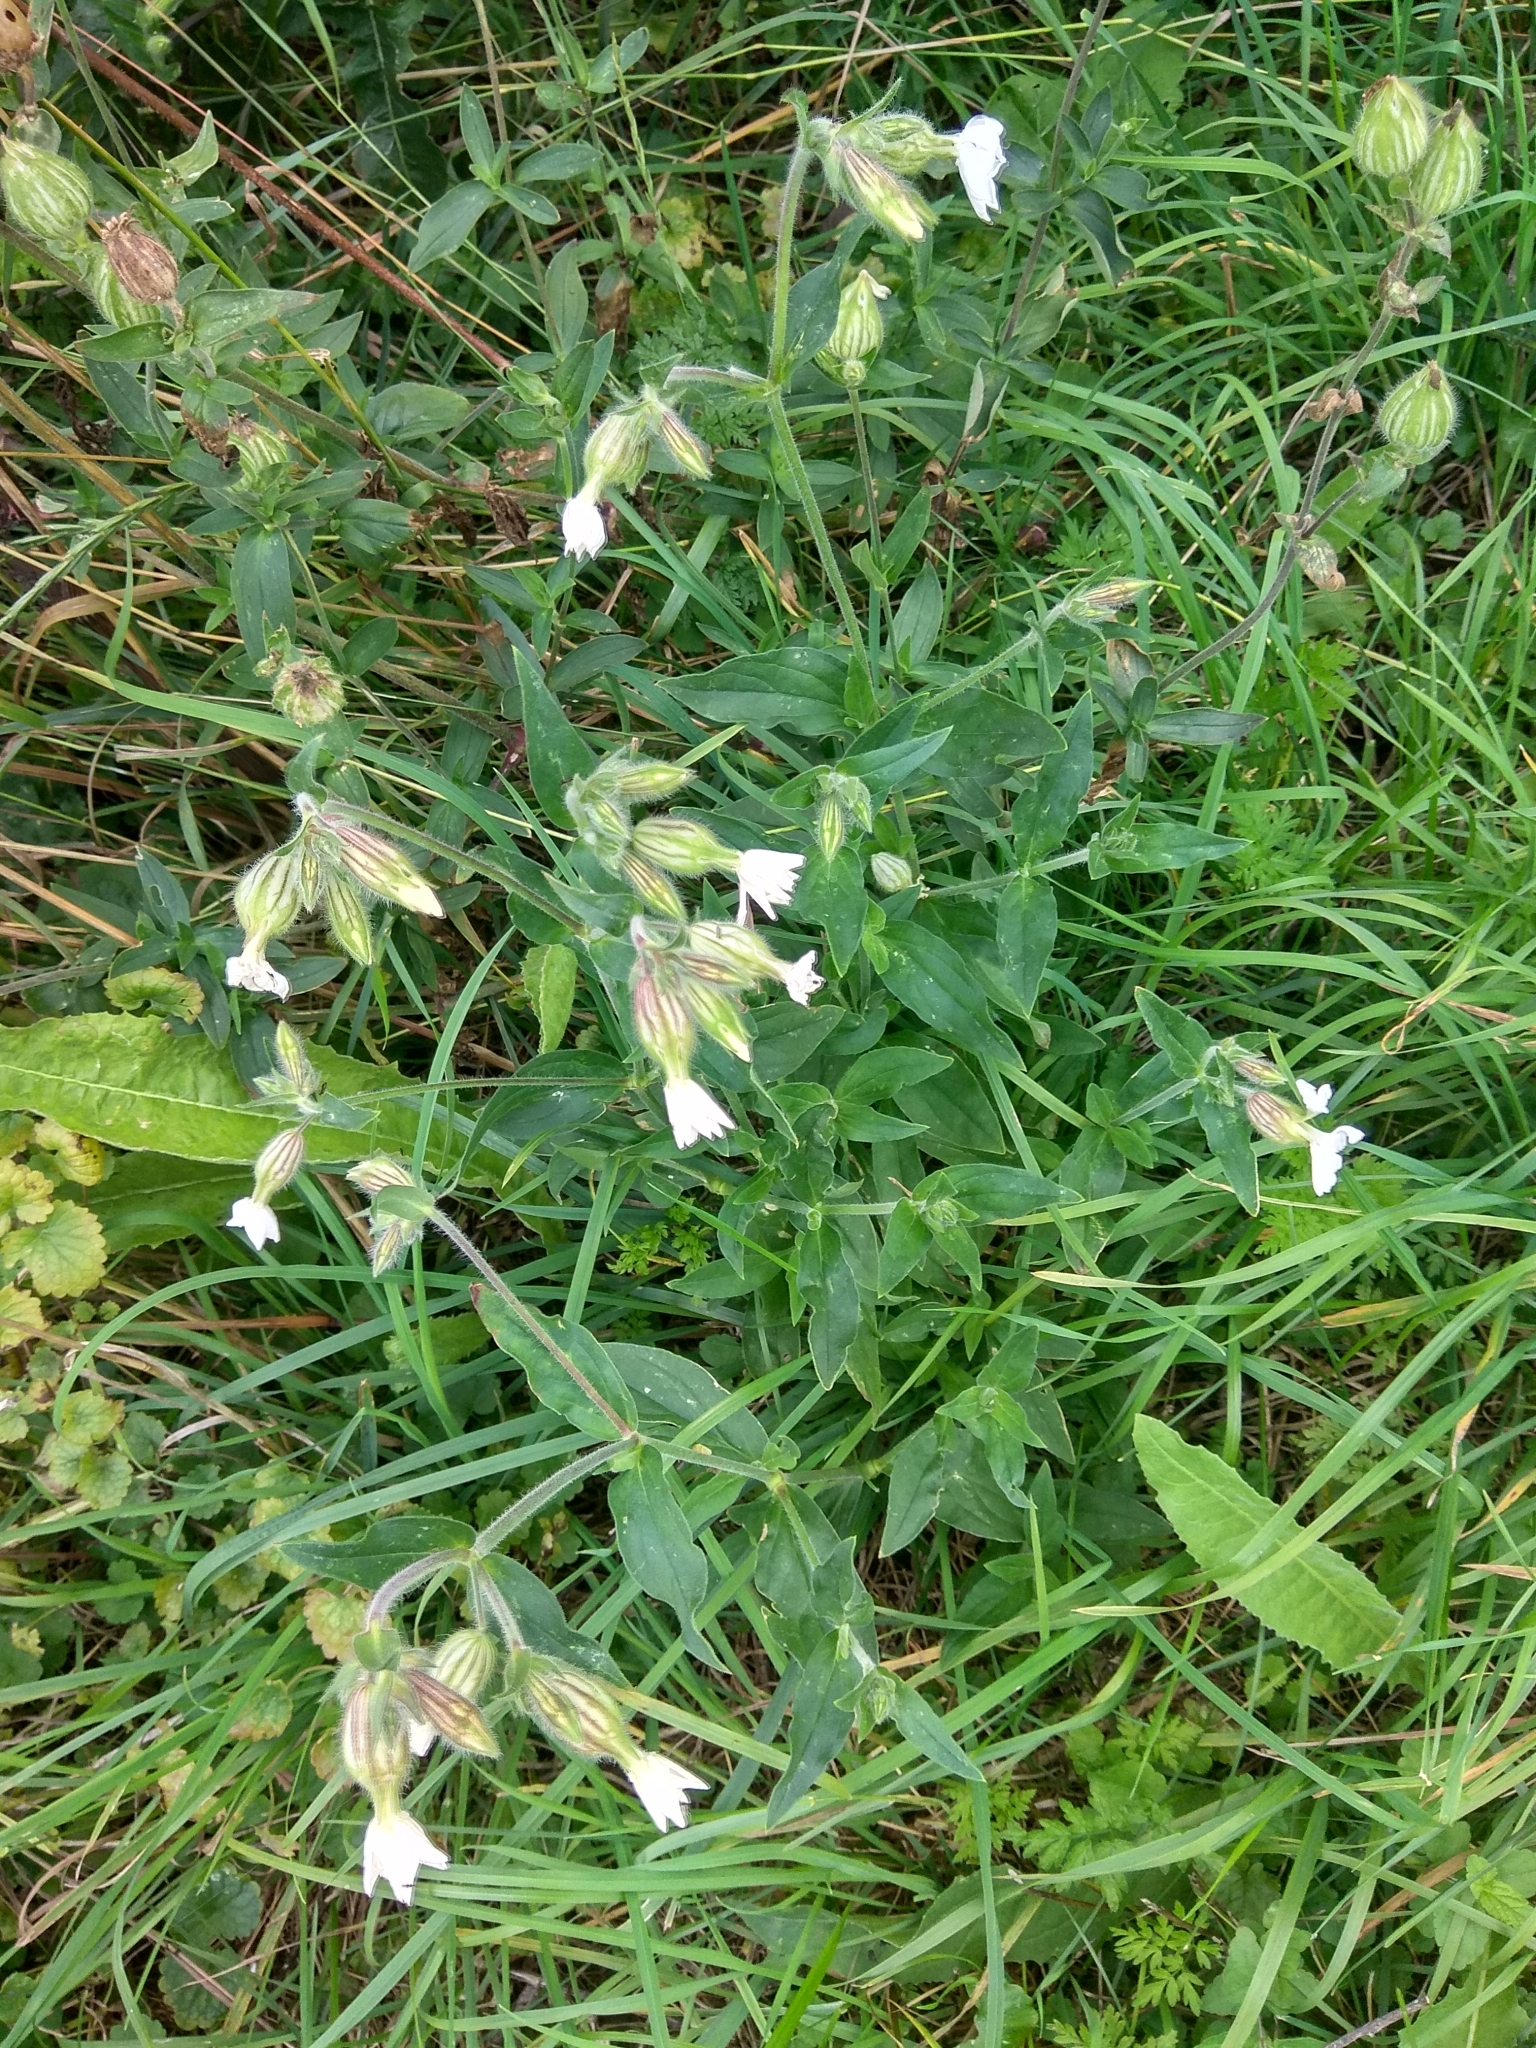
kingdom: Plantae
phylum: Tracheophyta
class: Magnoliopsida
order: Caryophyllales
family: Caryophyllaceae
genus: Silene
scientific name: Silene latifolia
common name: White campion
